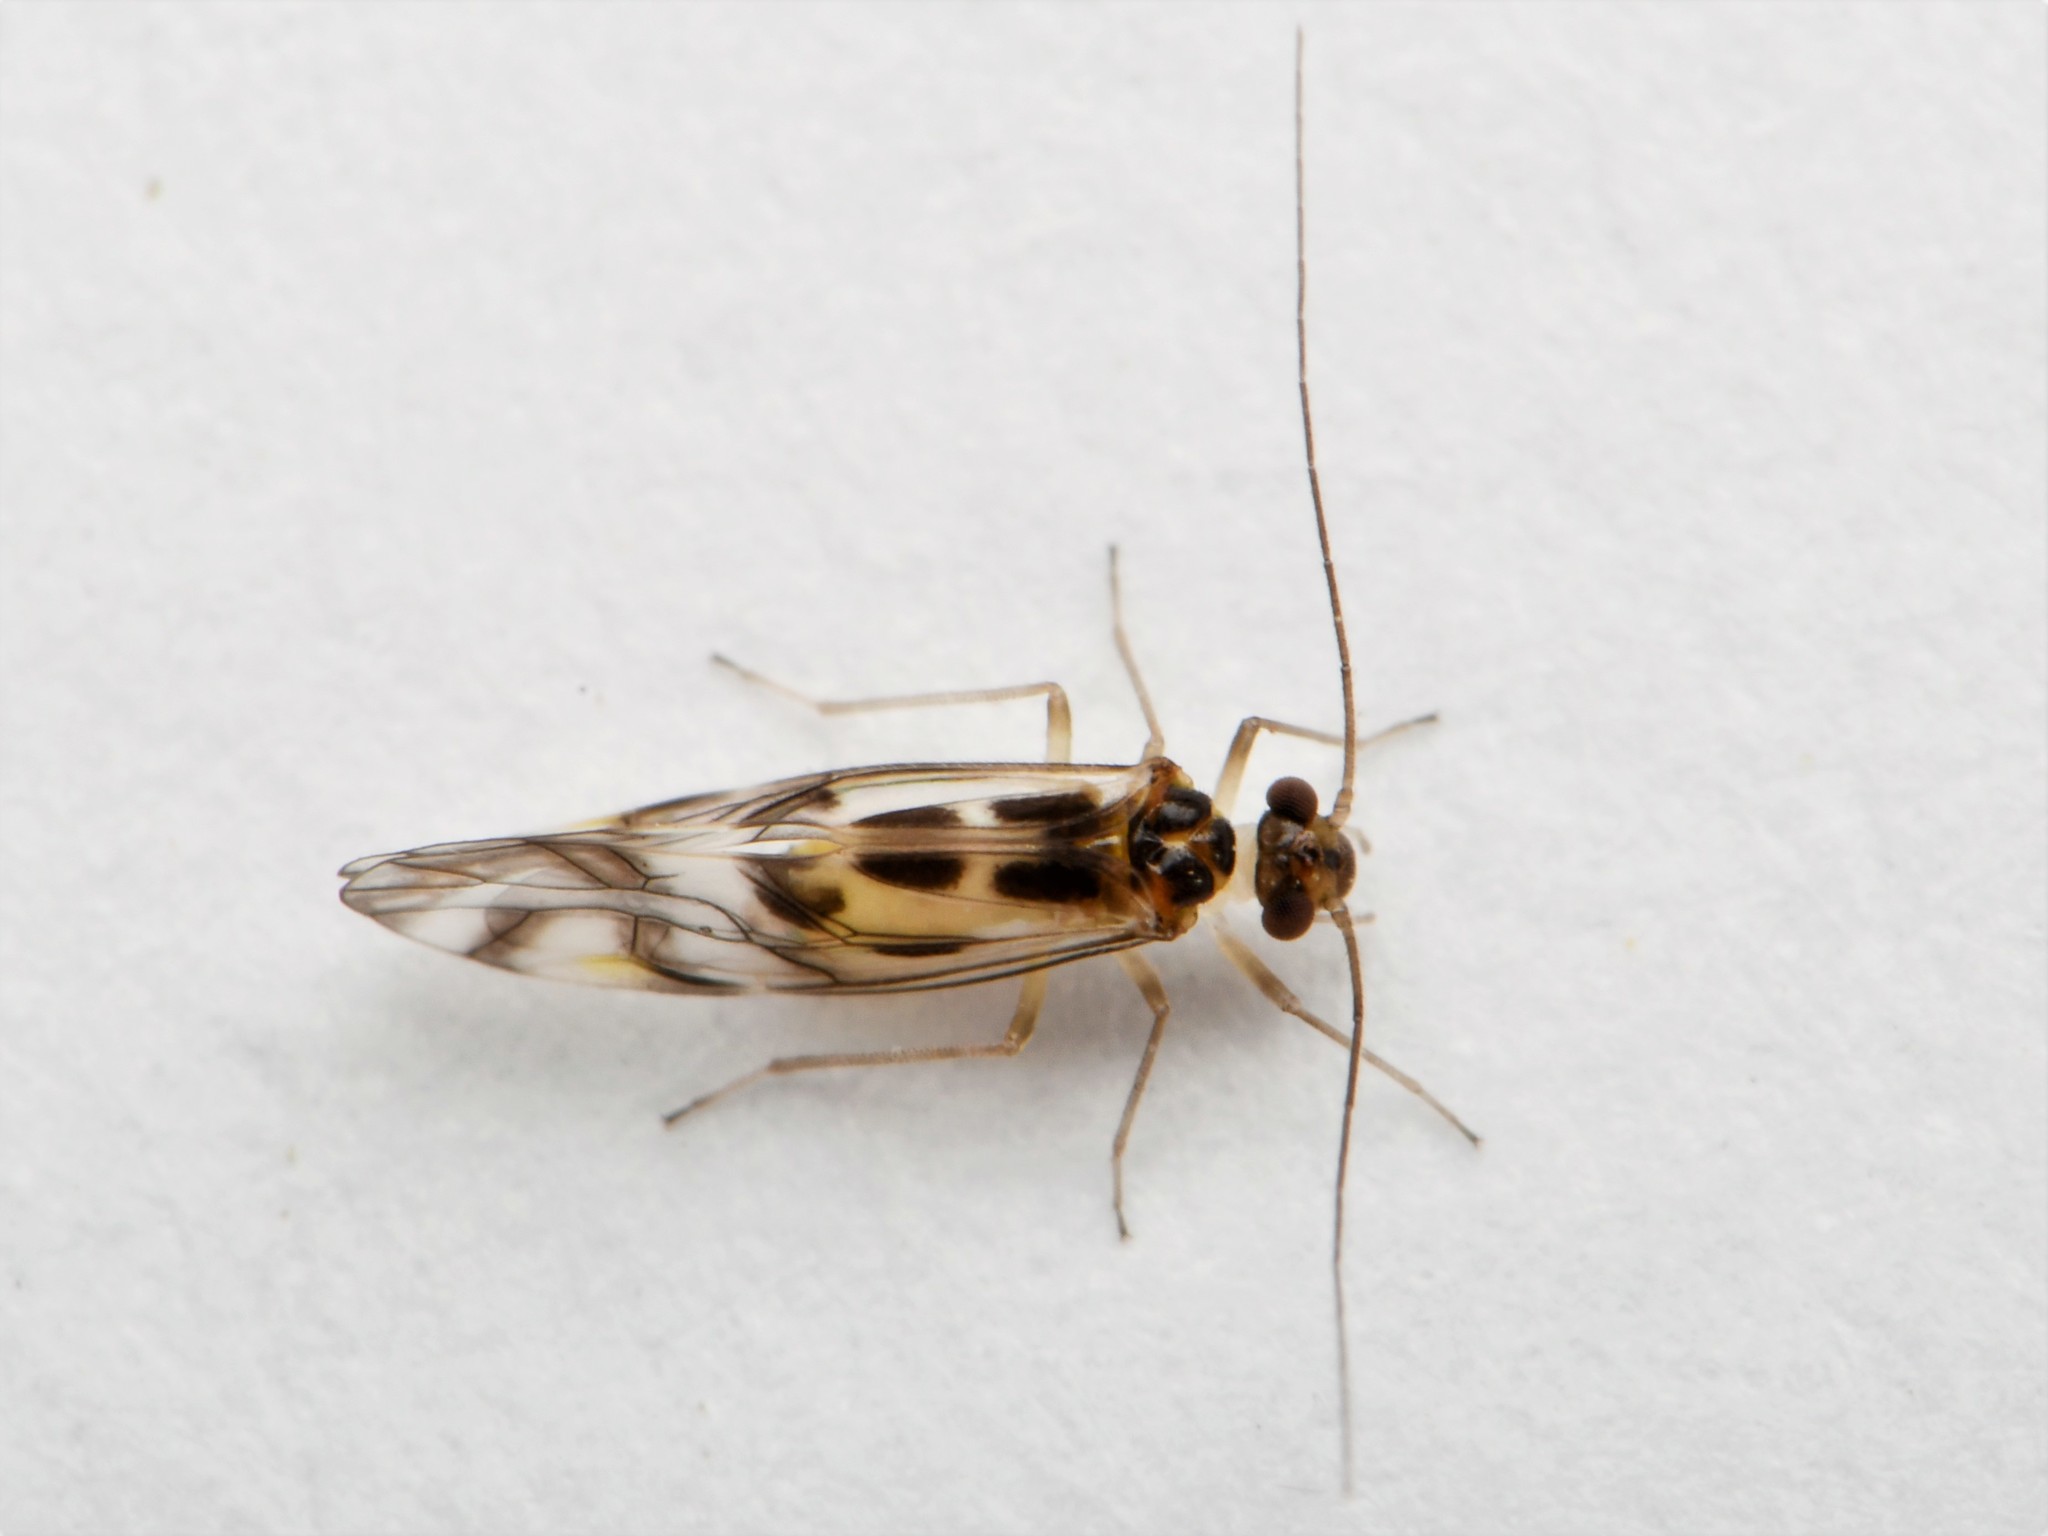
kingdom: Animalia
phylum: Arthropoda
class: Insecta
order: Psocodea
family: Stenopsocidae
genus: Graphopsocus
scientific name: Graphopsocus cruciatus
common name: Lizard bark louse
